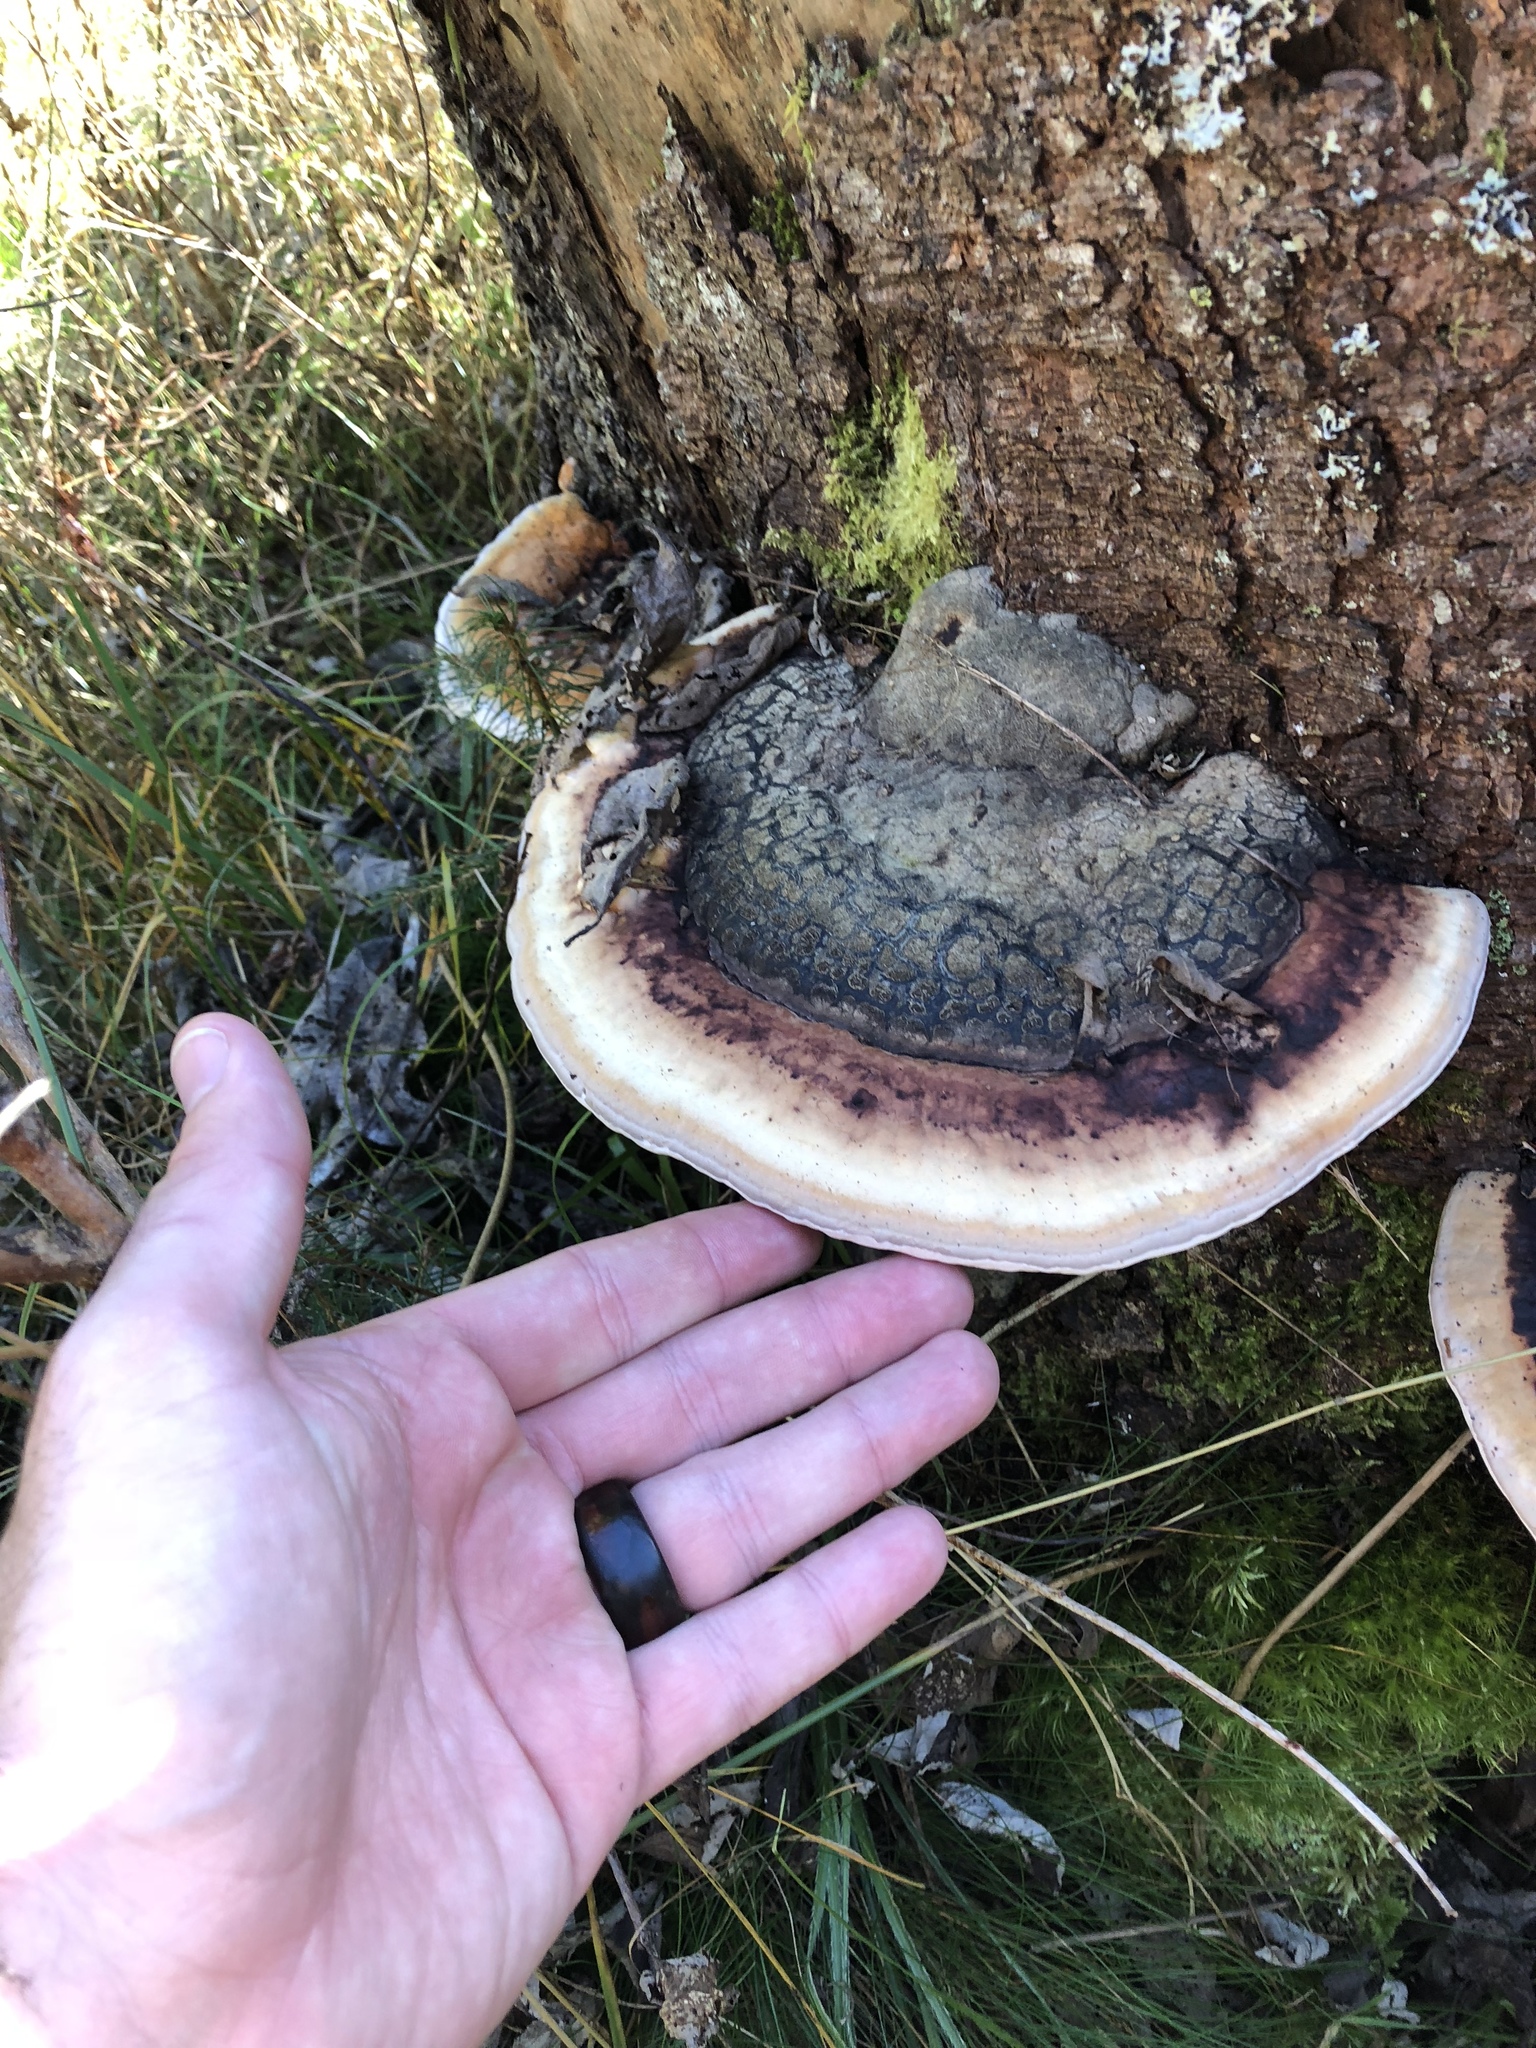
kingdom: Fungi
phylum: Basidiomycota
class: Agaricomycetes
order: Polyporales
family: Fomitopsidaceae
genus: Fomitopsis
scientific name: Fomitopsis pinicola
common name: Red-belted bracket
